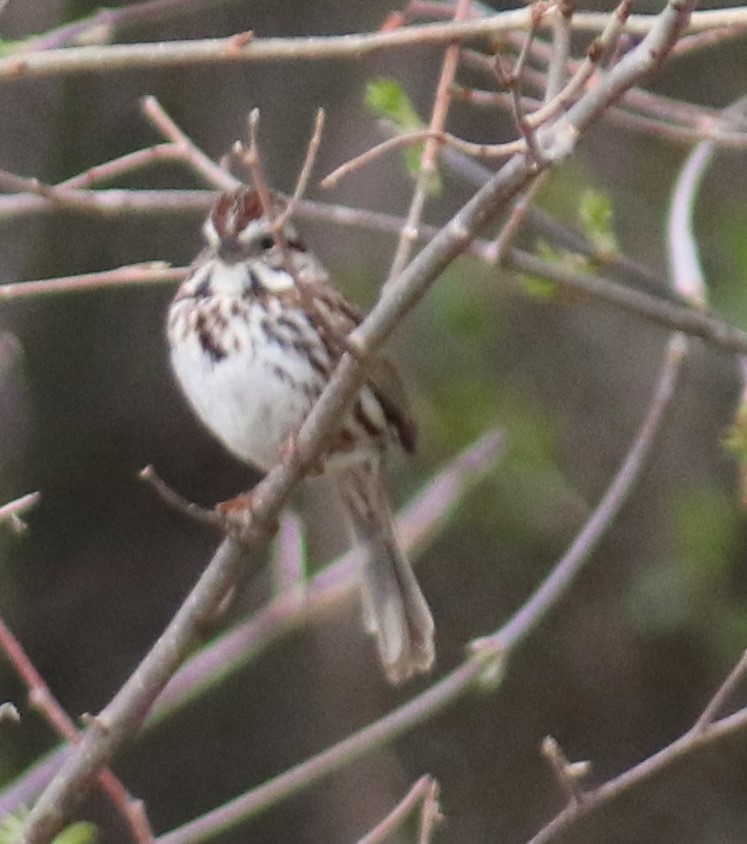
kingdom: Animalia
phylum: Chordata
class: Aves
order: Passeriformes
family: Passerellidae
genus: Melospiza
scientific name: Melospiza melodia
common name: Song sparrow
